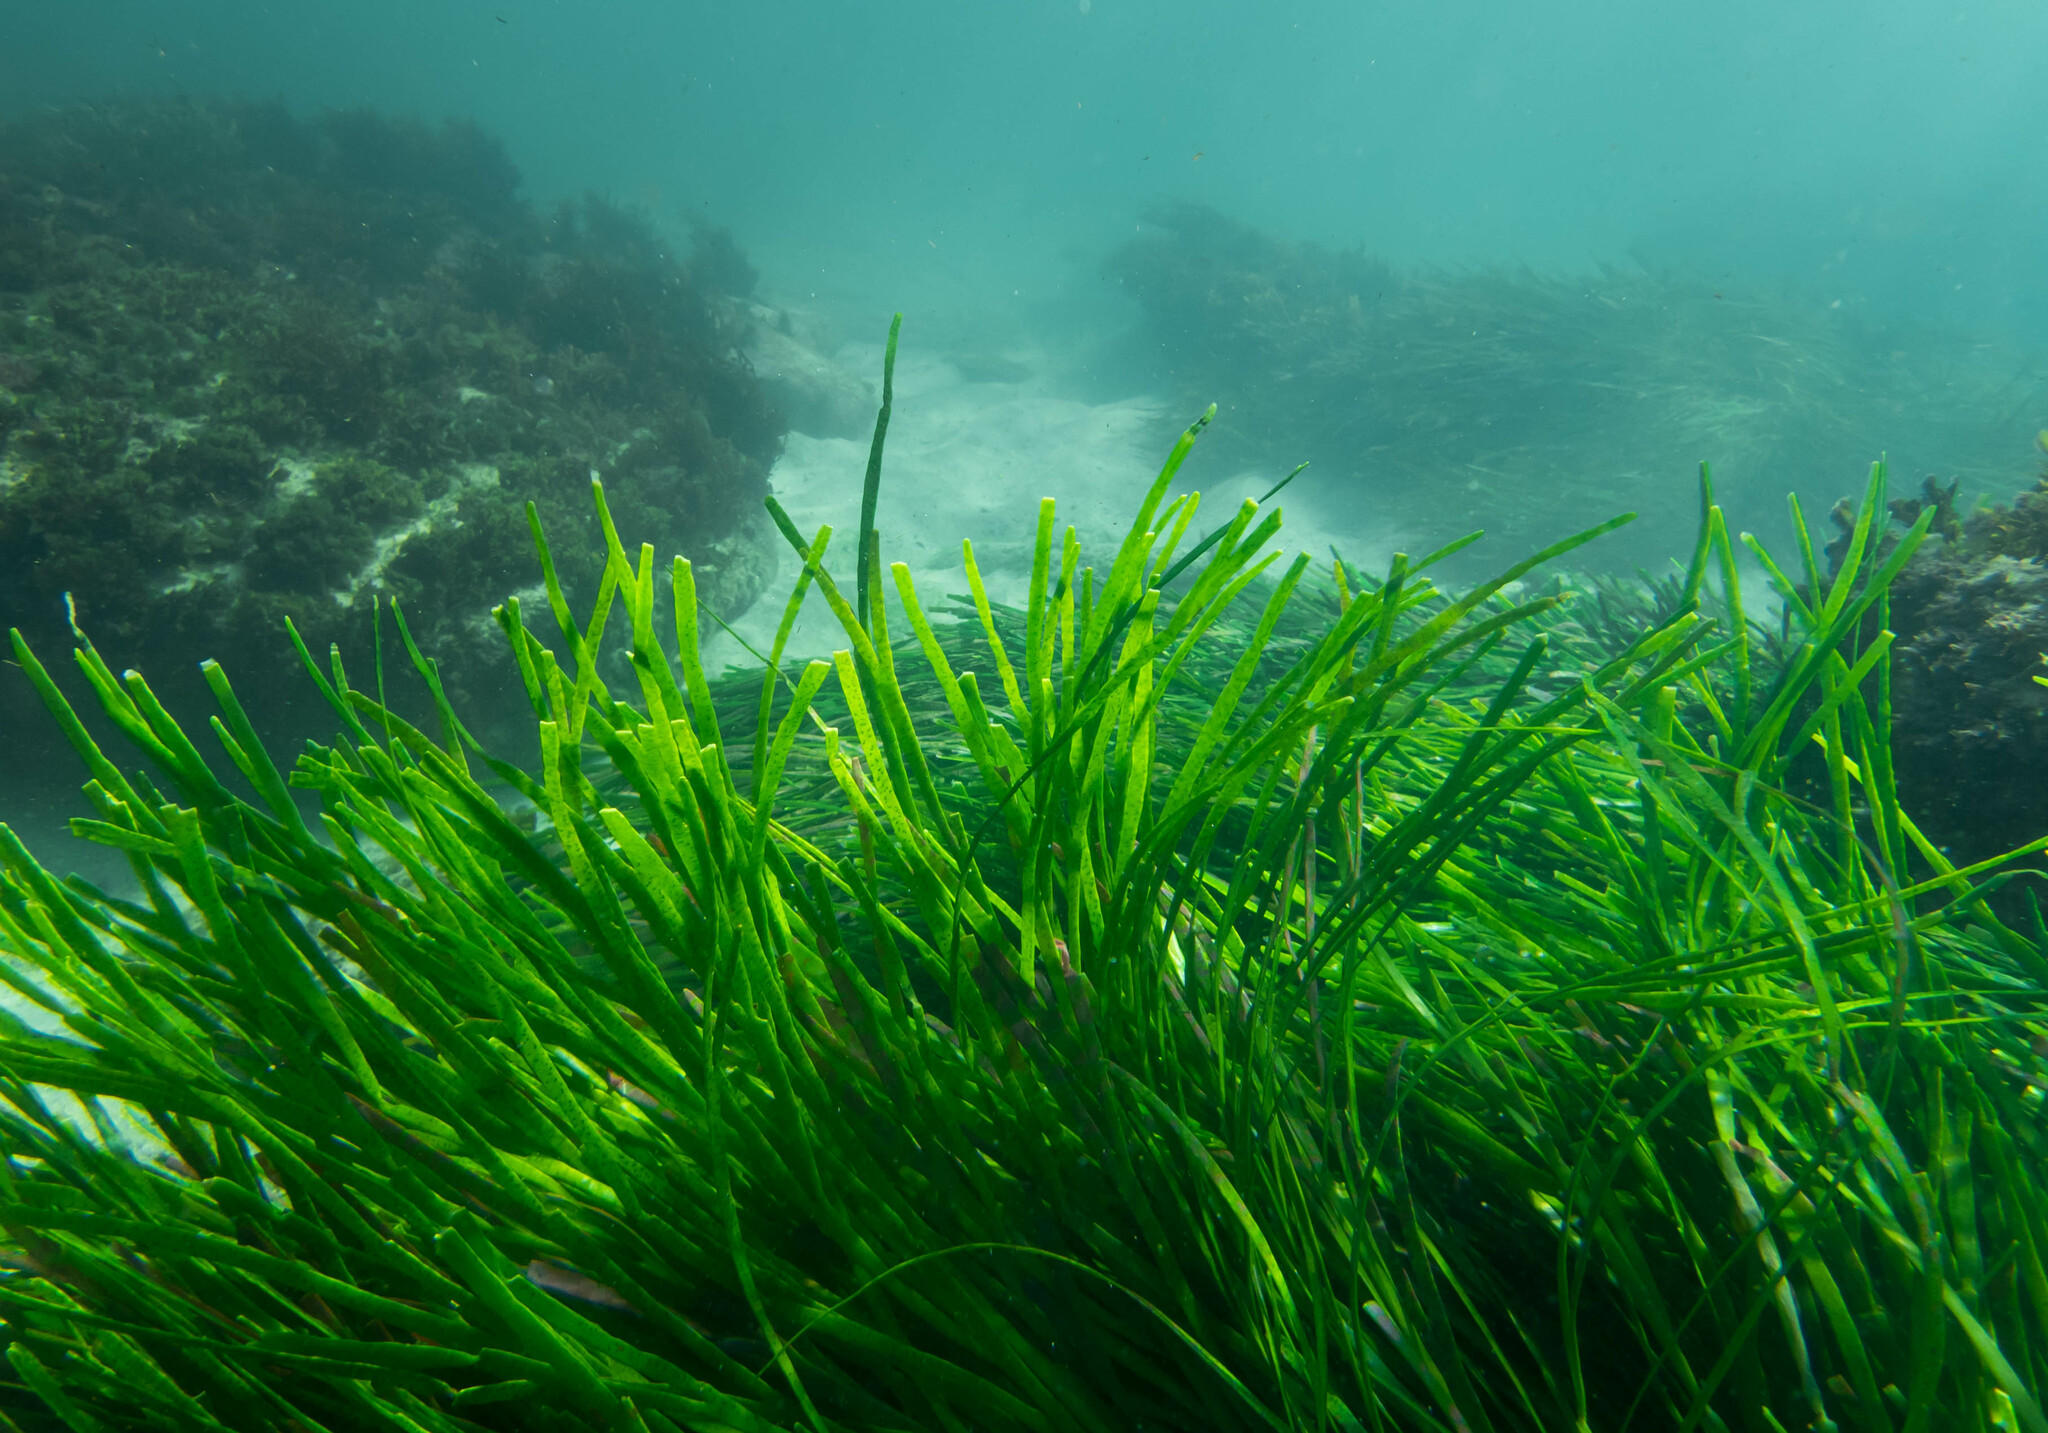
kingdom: Plantae
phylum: Chlorophyta
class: Ulvophyceae
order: Bryopsidales
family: Caulerpaceae
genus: Caulerpa
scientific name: Caulerpa filiformis
